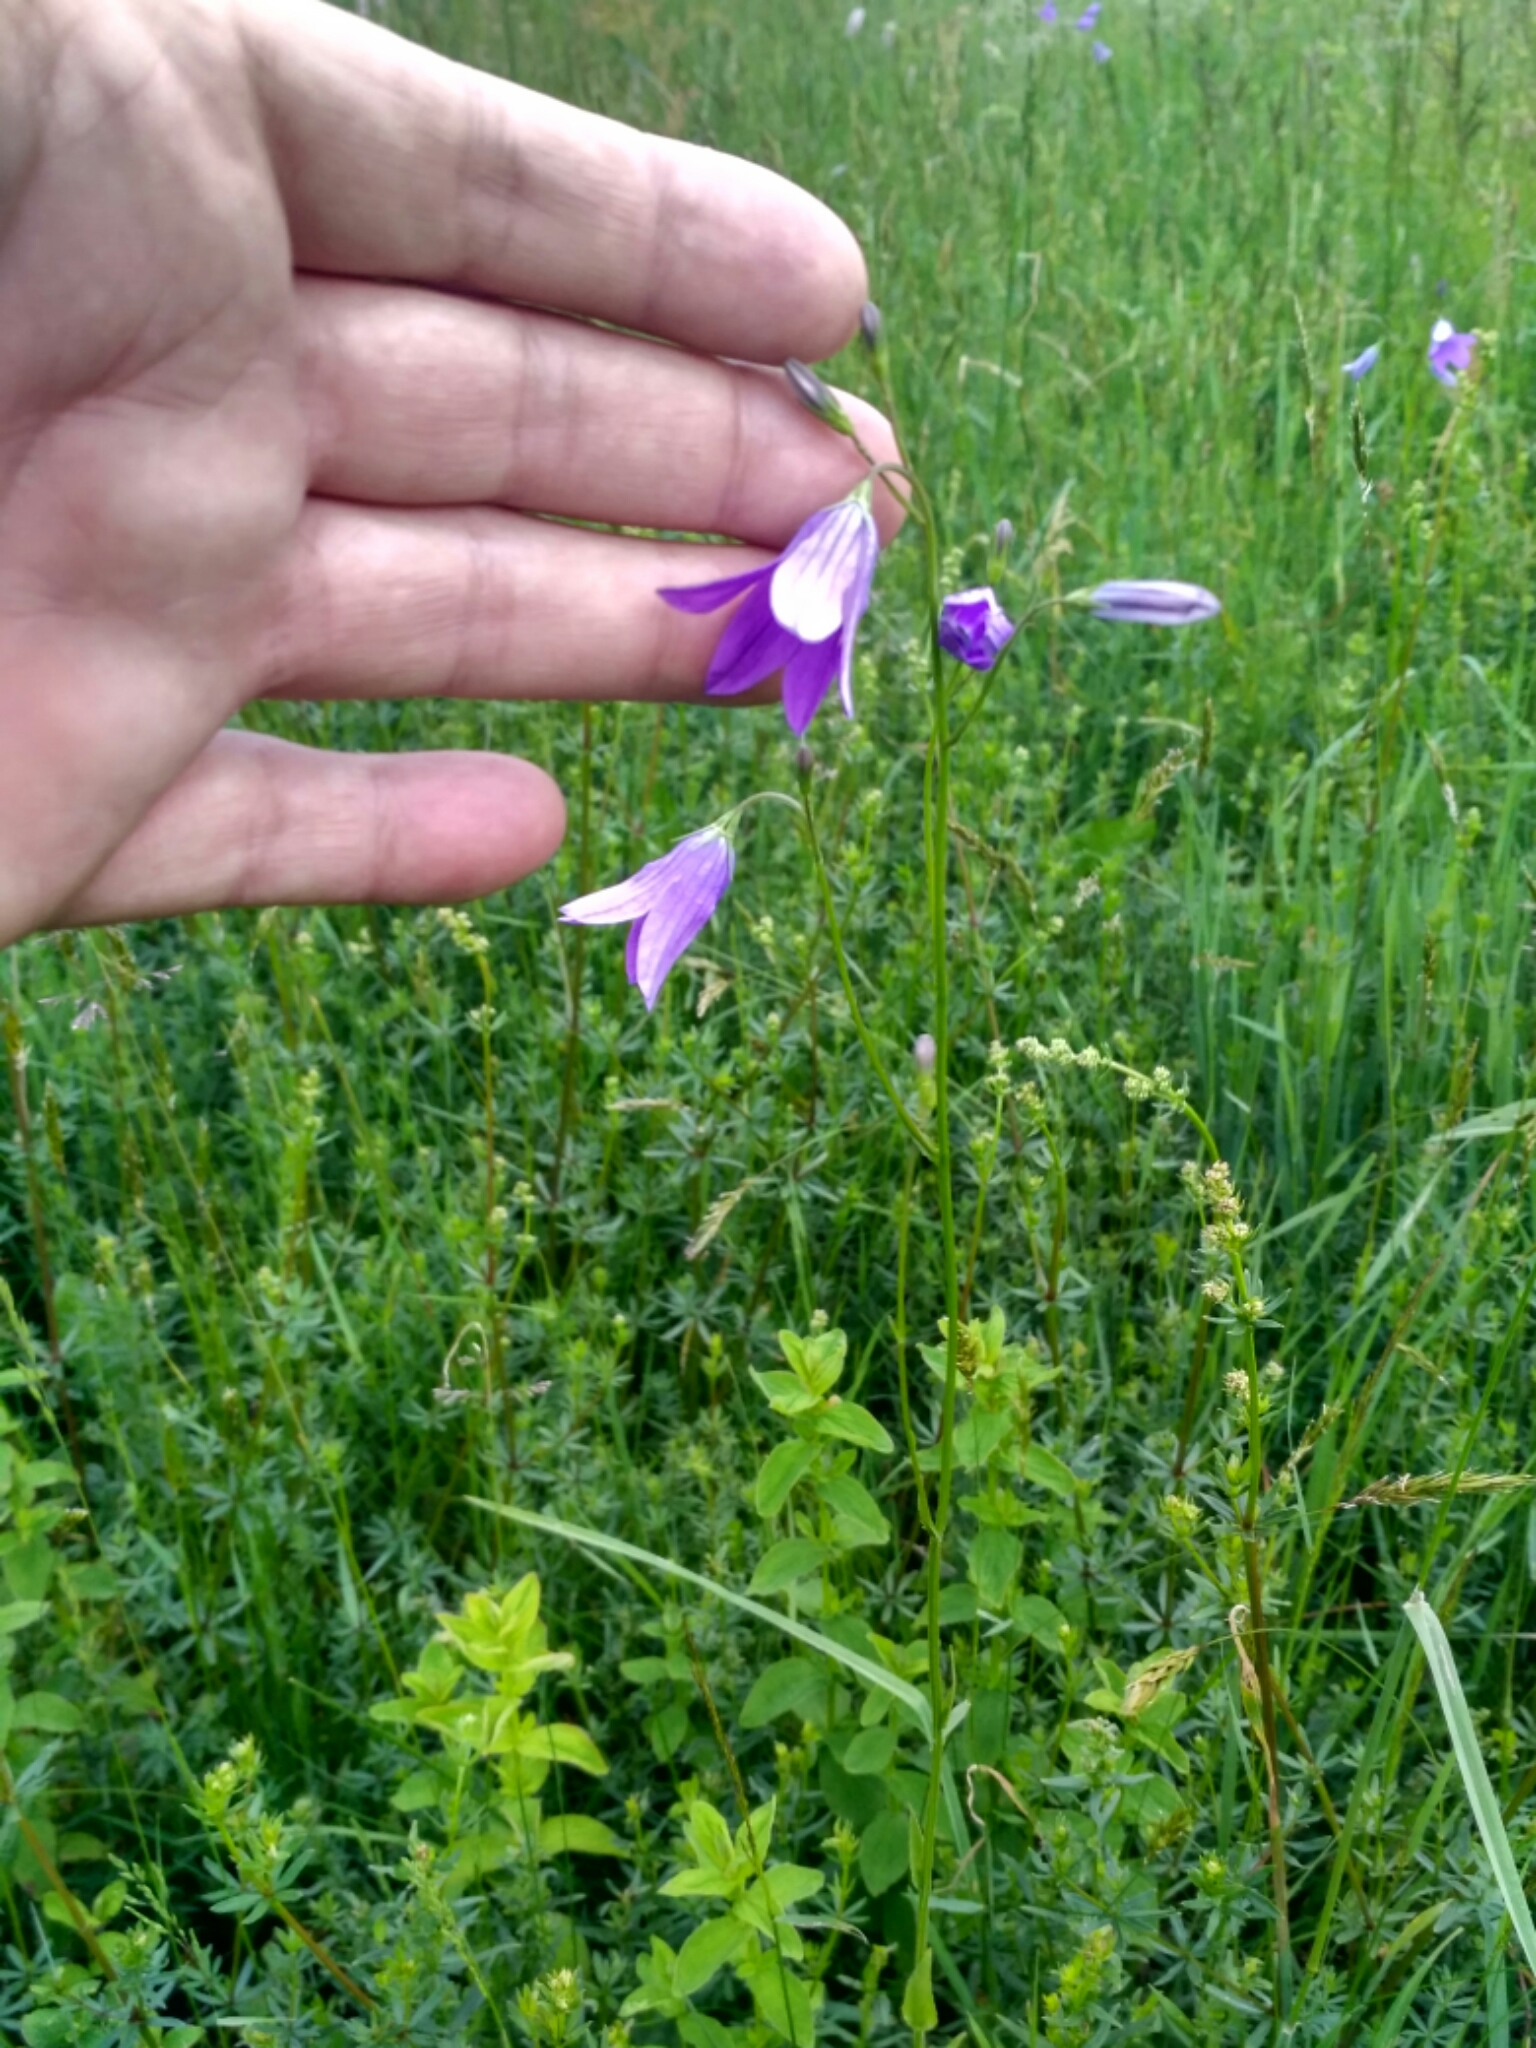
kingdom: Plantae
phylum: Tracheophyta
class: Magnoliopsida
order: Asterales
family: Campanulaceae
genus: Campanula
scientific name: Campanula patula
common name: Spreading bellflower
